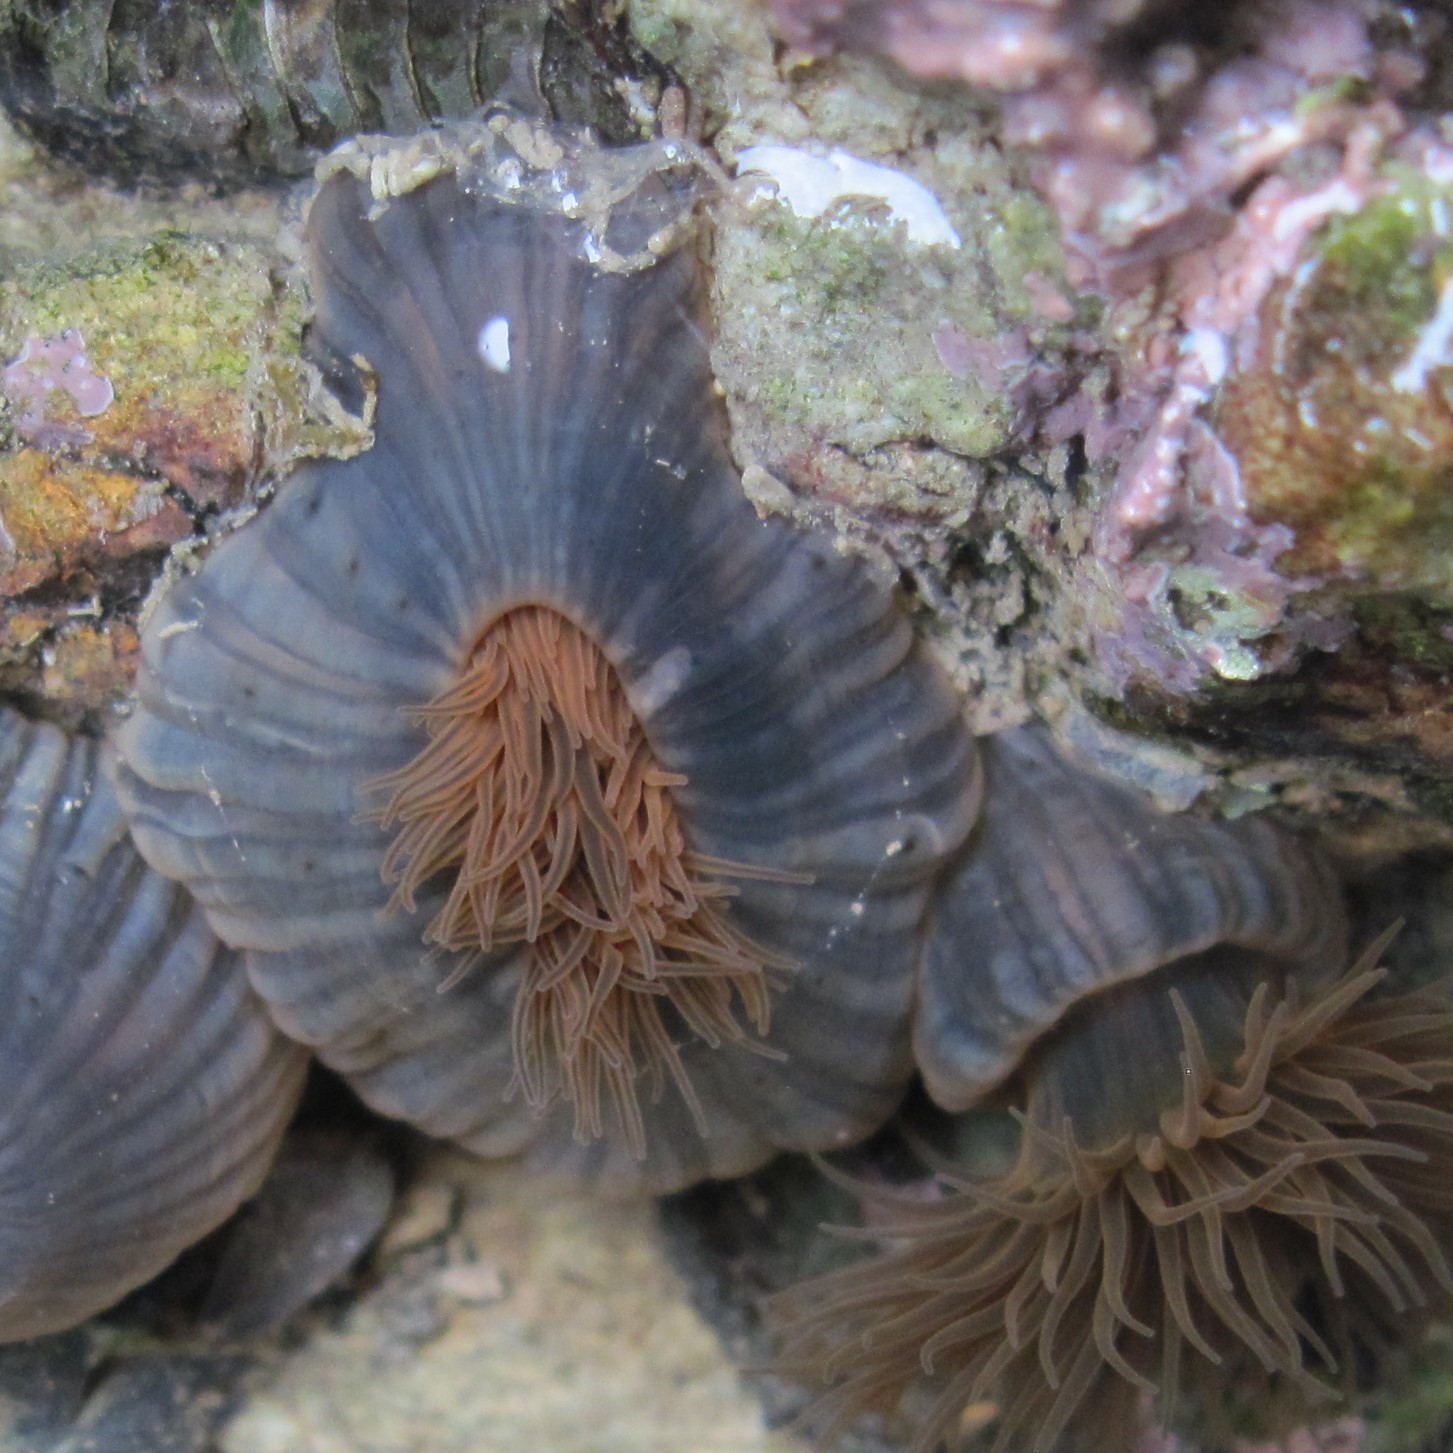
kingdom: Animalia
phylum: Cnidaria
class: Anthozoa
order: Actiniaria
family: Diadumenidae
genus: Diadumene
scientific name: Diadumene neozelanica
